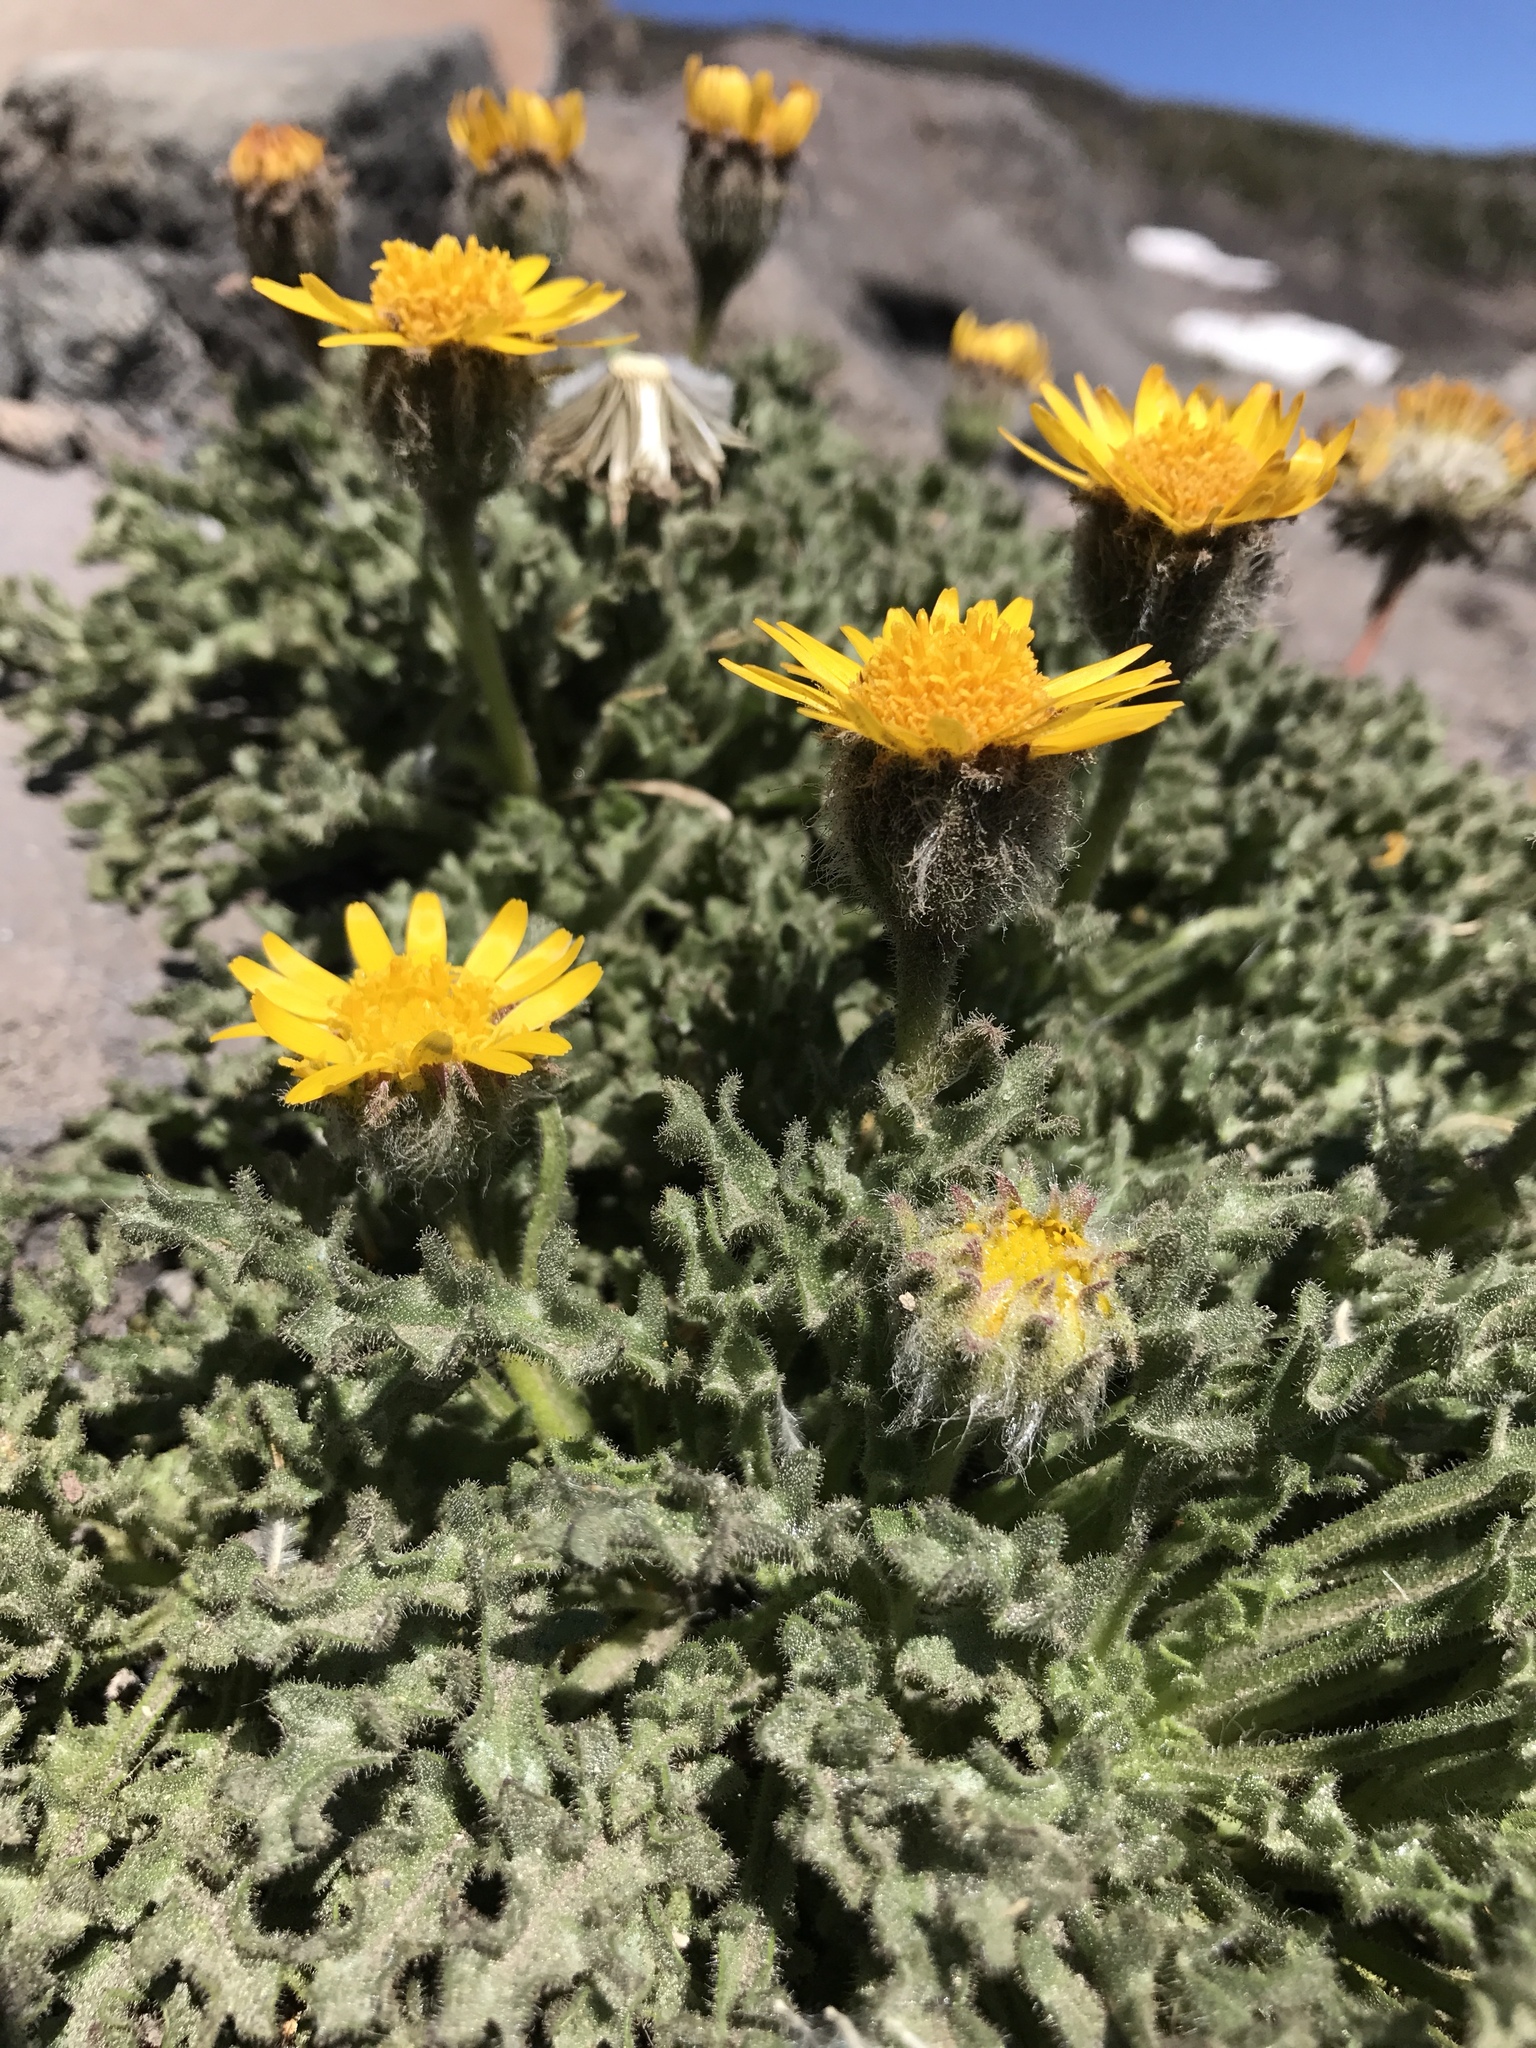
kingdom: Plantae
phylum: Tracheophyta
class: Magnoliopsida
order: Asterales
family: Asteraceae
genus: Hulsea
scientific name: Hulsea nana
